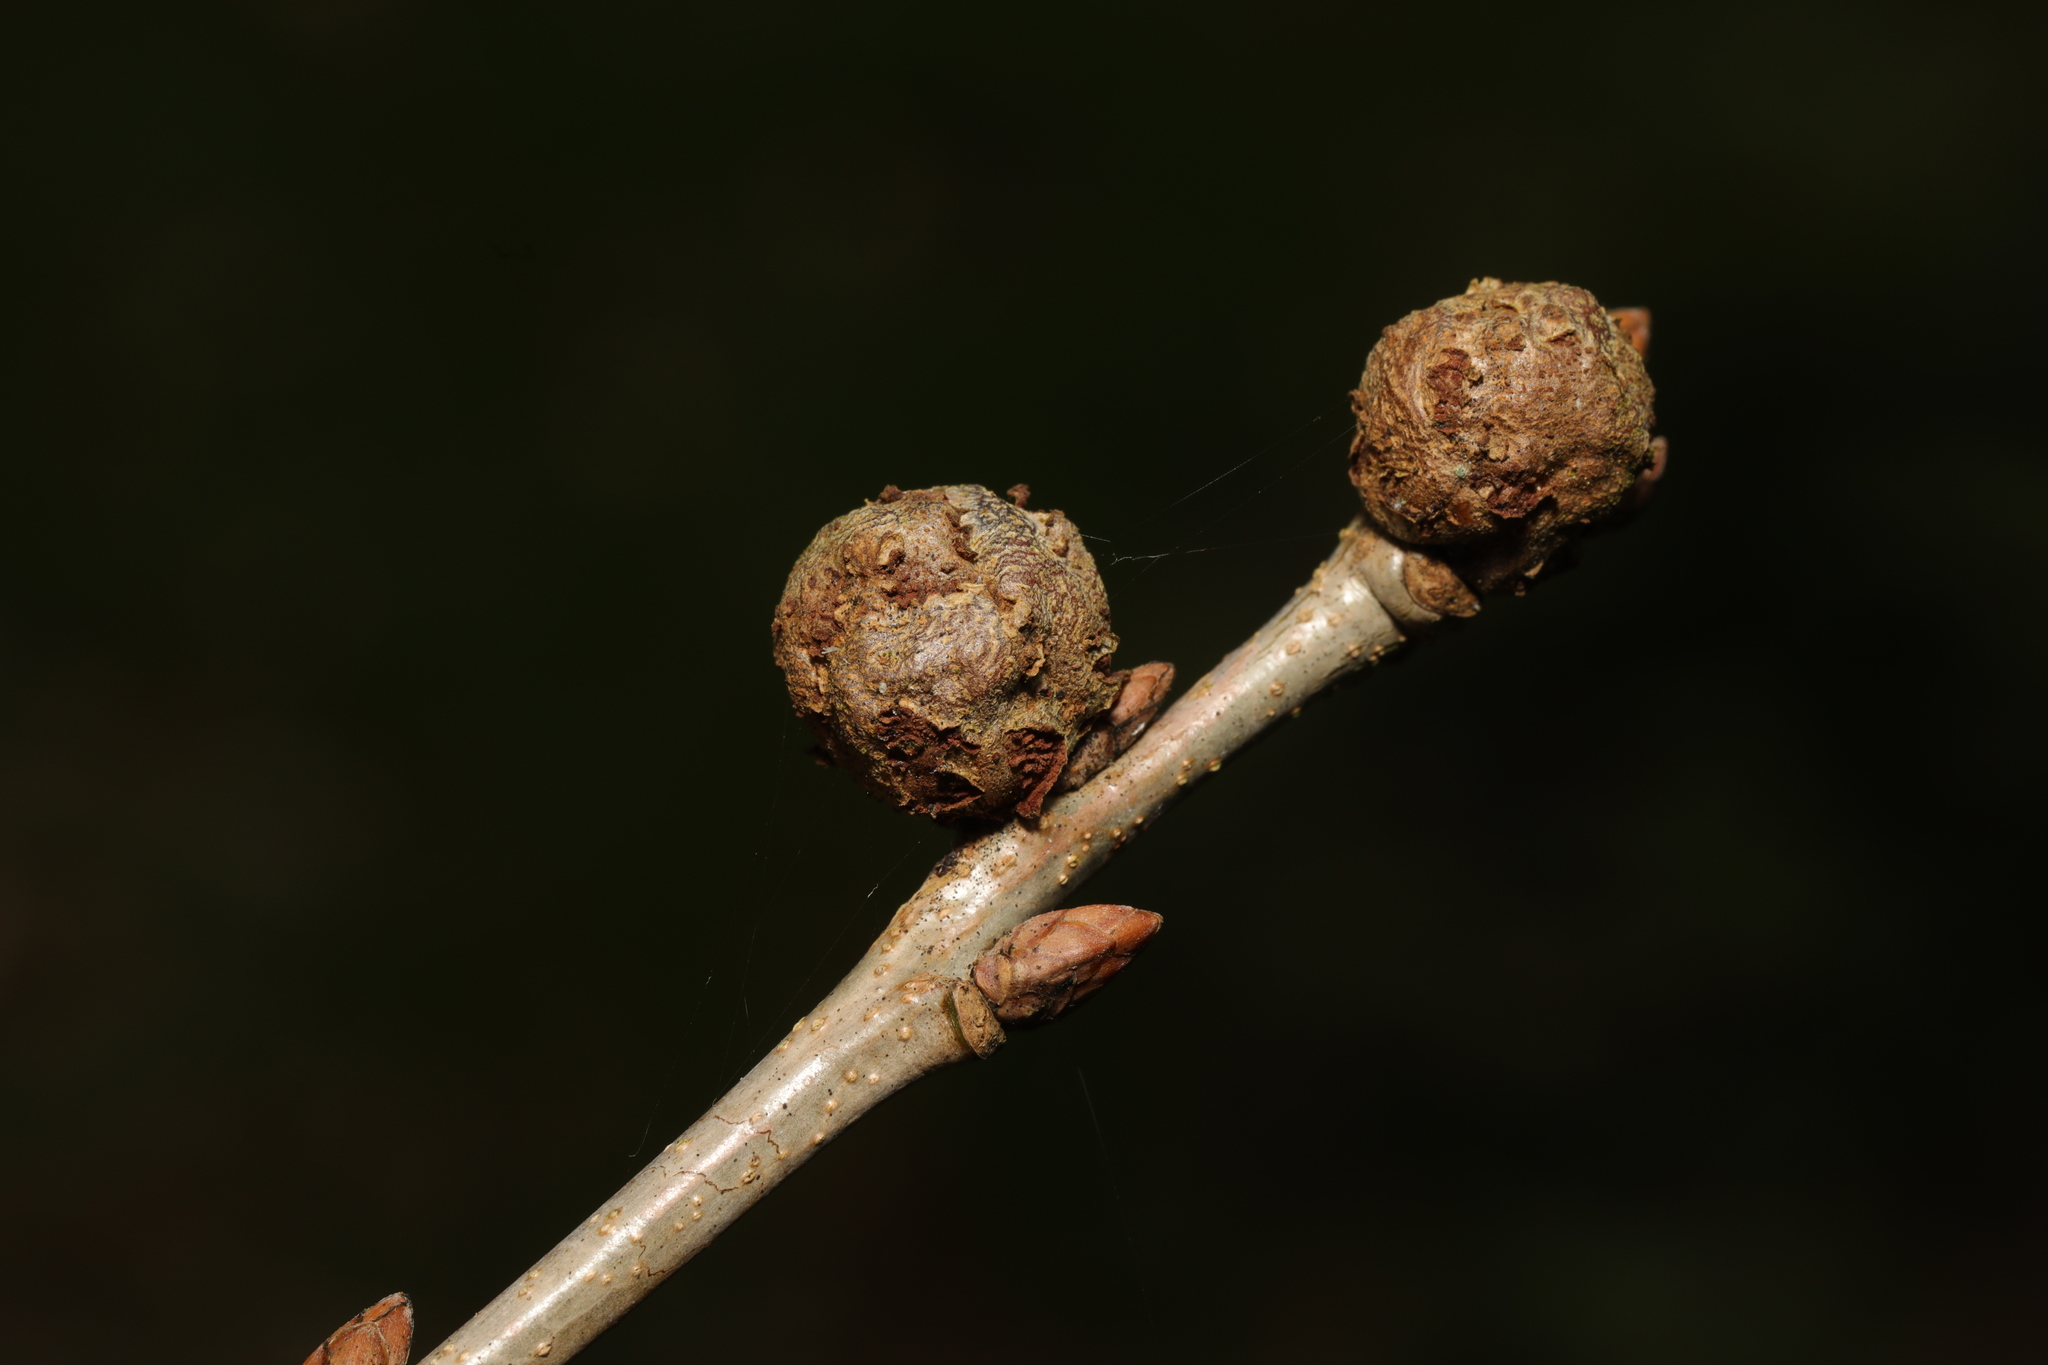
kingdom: Animalia
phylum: Arthropoda
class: Insecta
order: Hymenoptera
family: Cynipidae
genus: Andricus
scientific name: Andricus lignicolus
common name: Cola-nut gall
